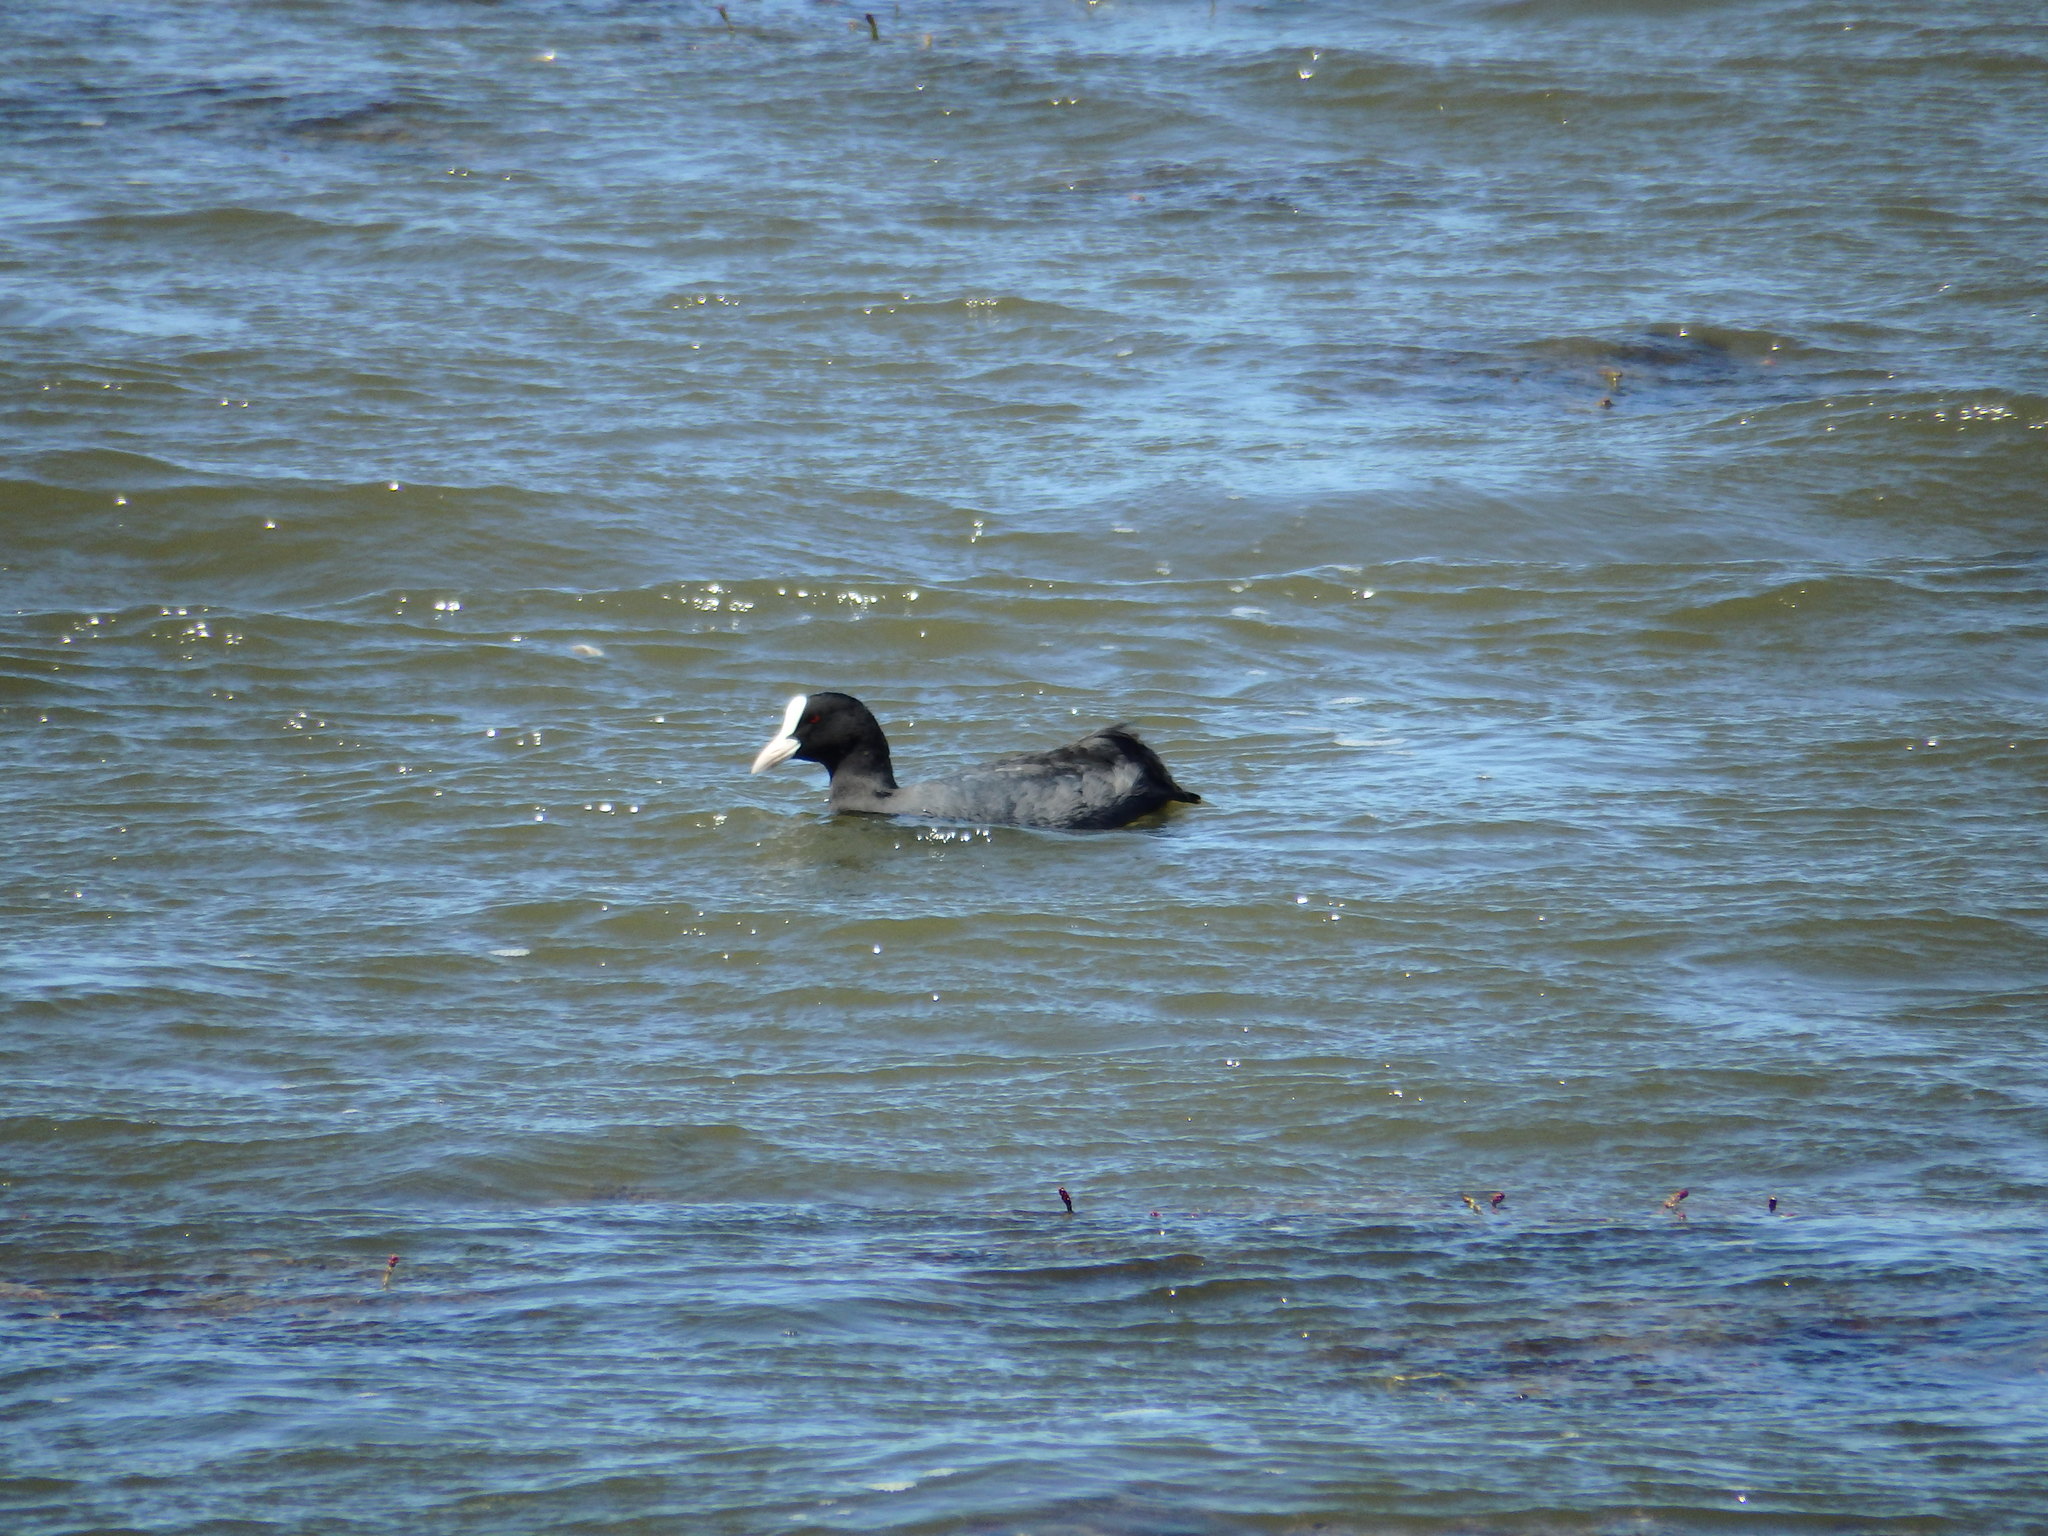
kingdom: Animalia
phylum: Chordata
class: Aves
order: Gruiformes
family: Rallidae
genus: Fulica
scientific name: Fulica atra
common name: Eurasian coot
